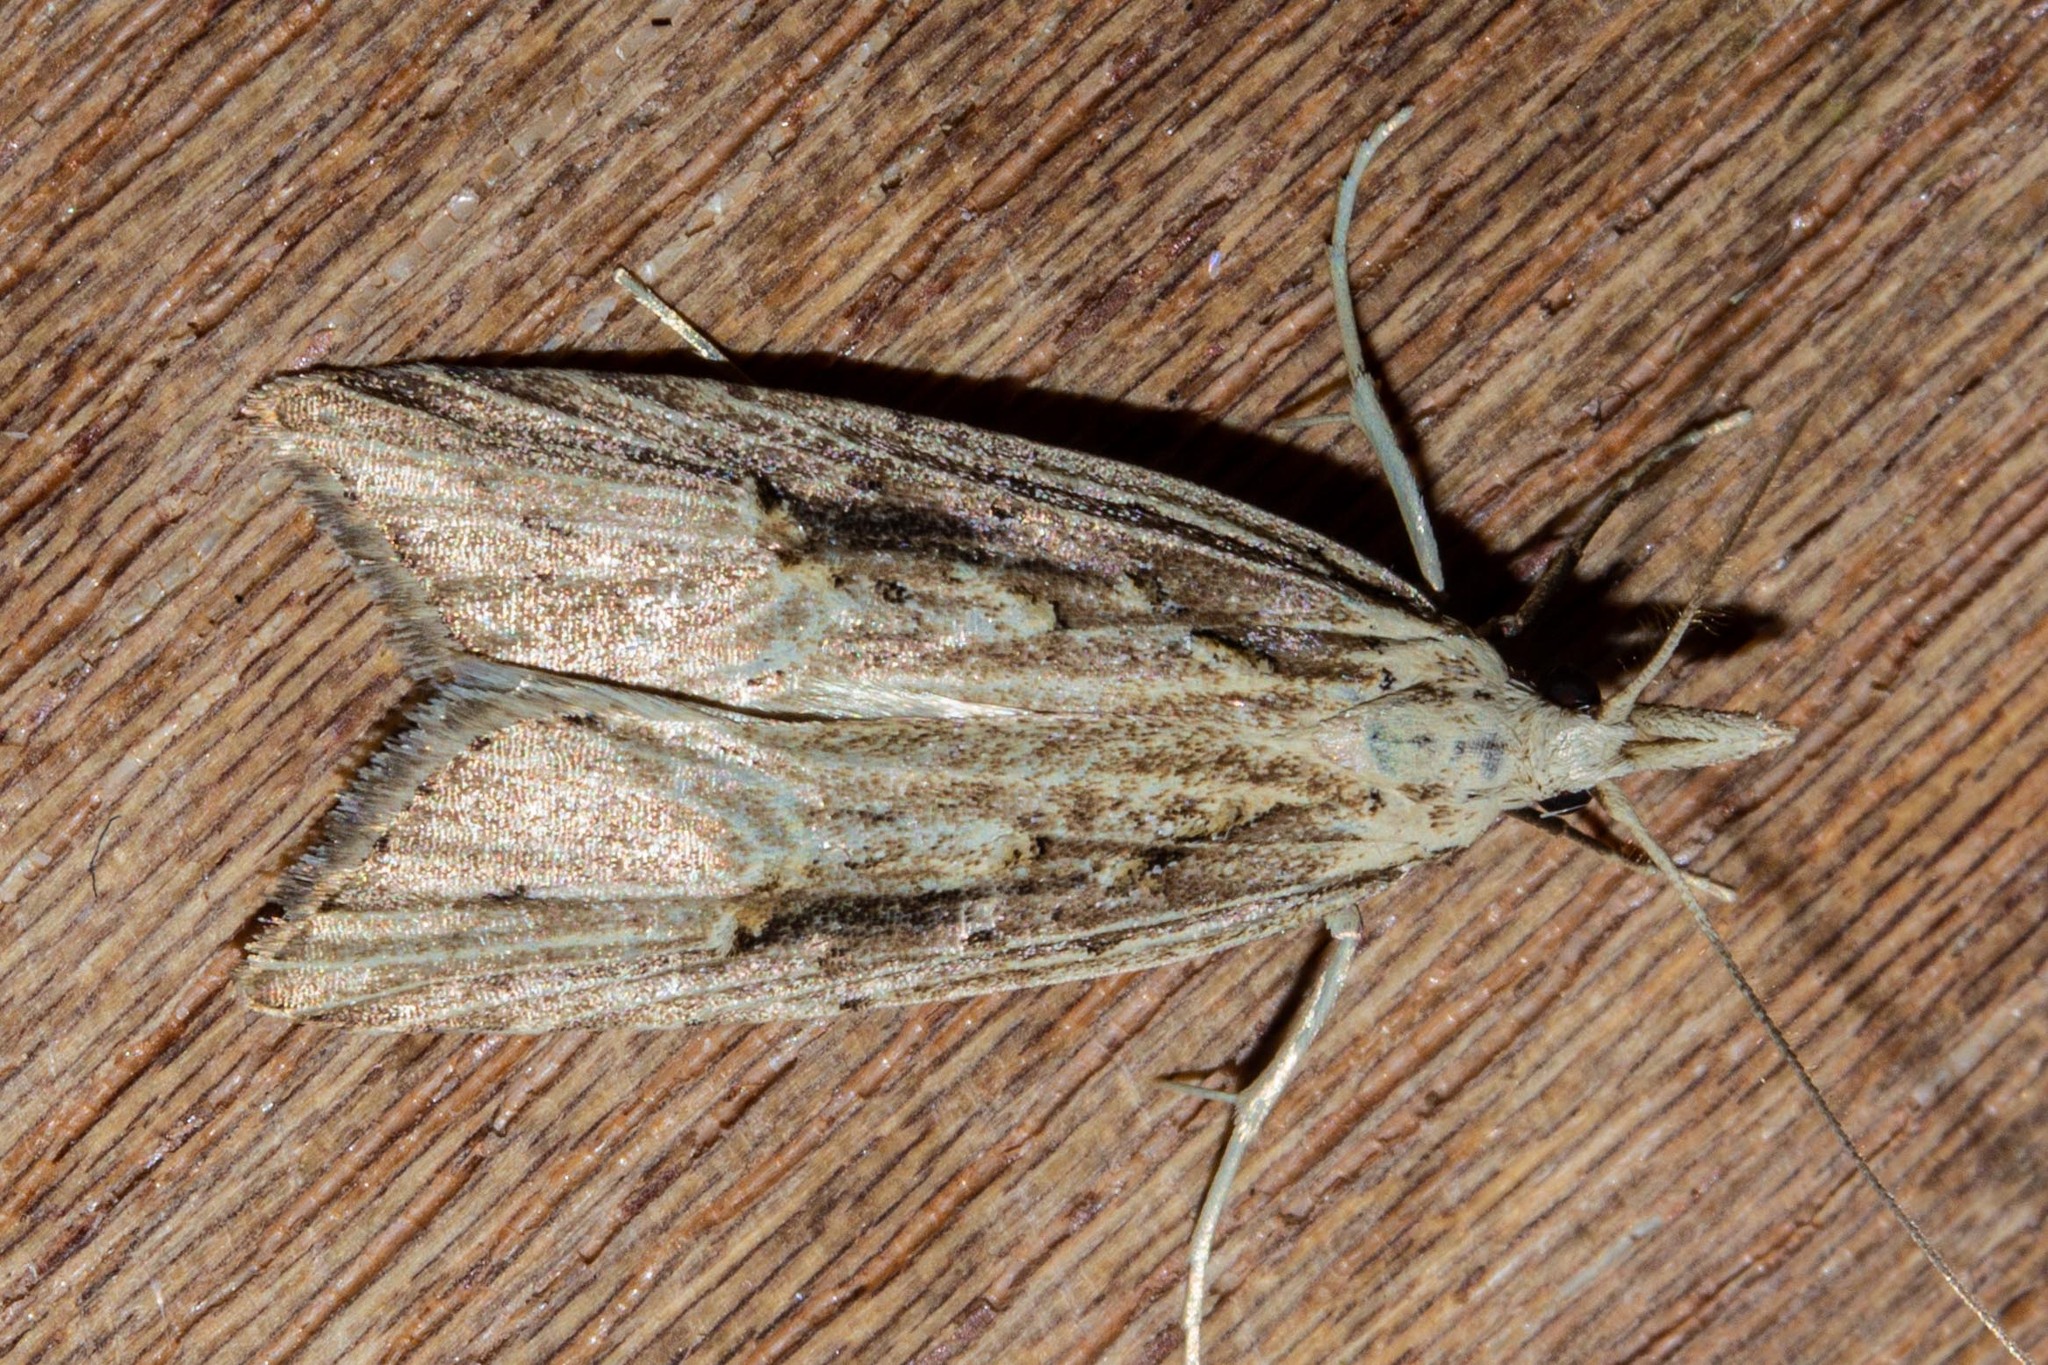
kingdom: Animalia
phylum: Arthropoda
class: Insecta
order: Lepidoptera
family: Carposinidae
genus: Carposina
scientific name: Carposina Heterocrossa exochana
